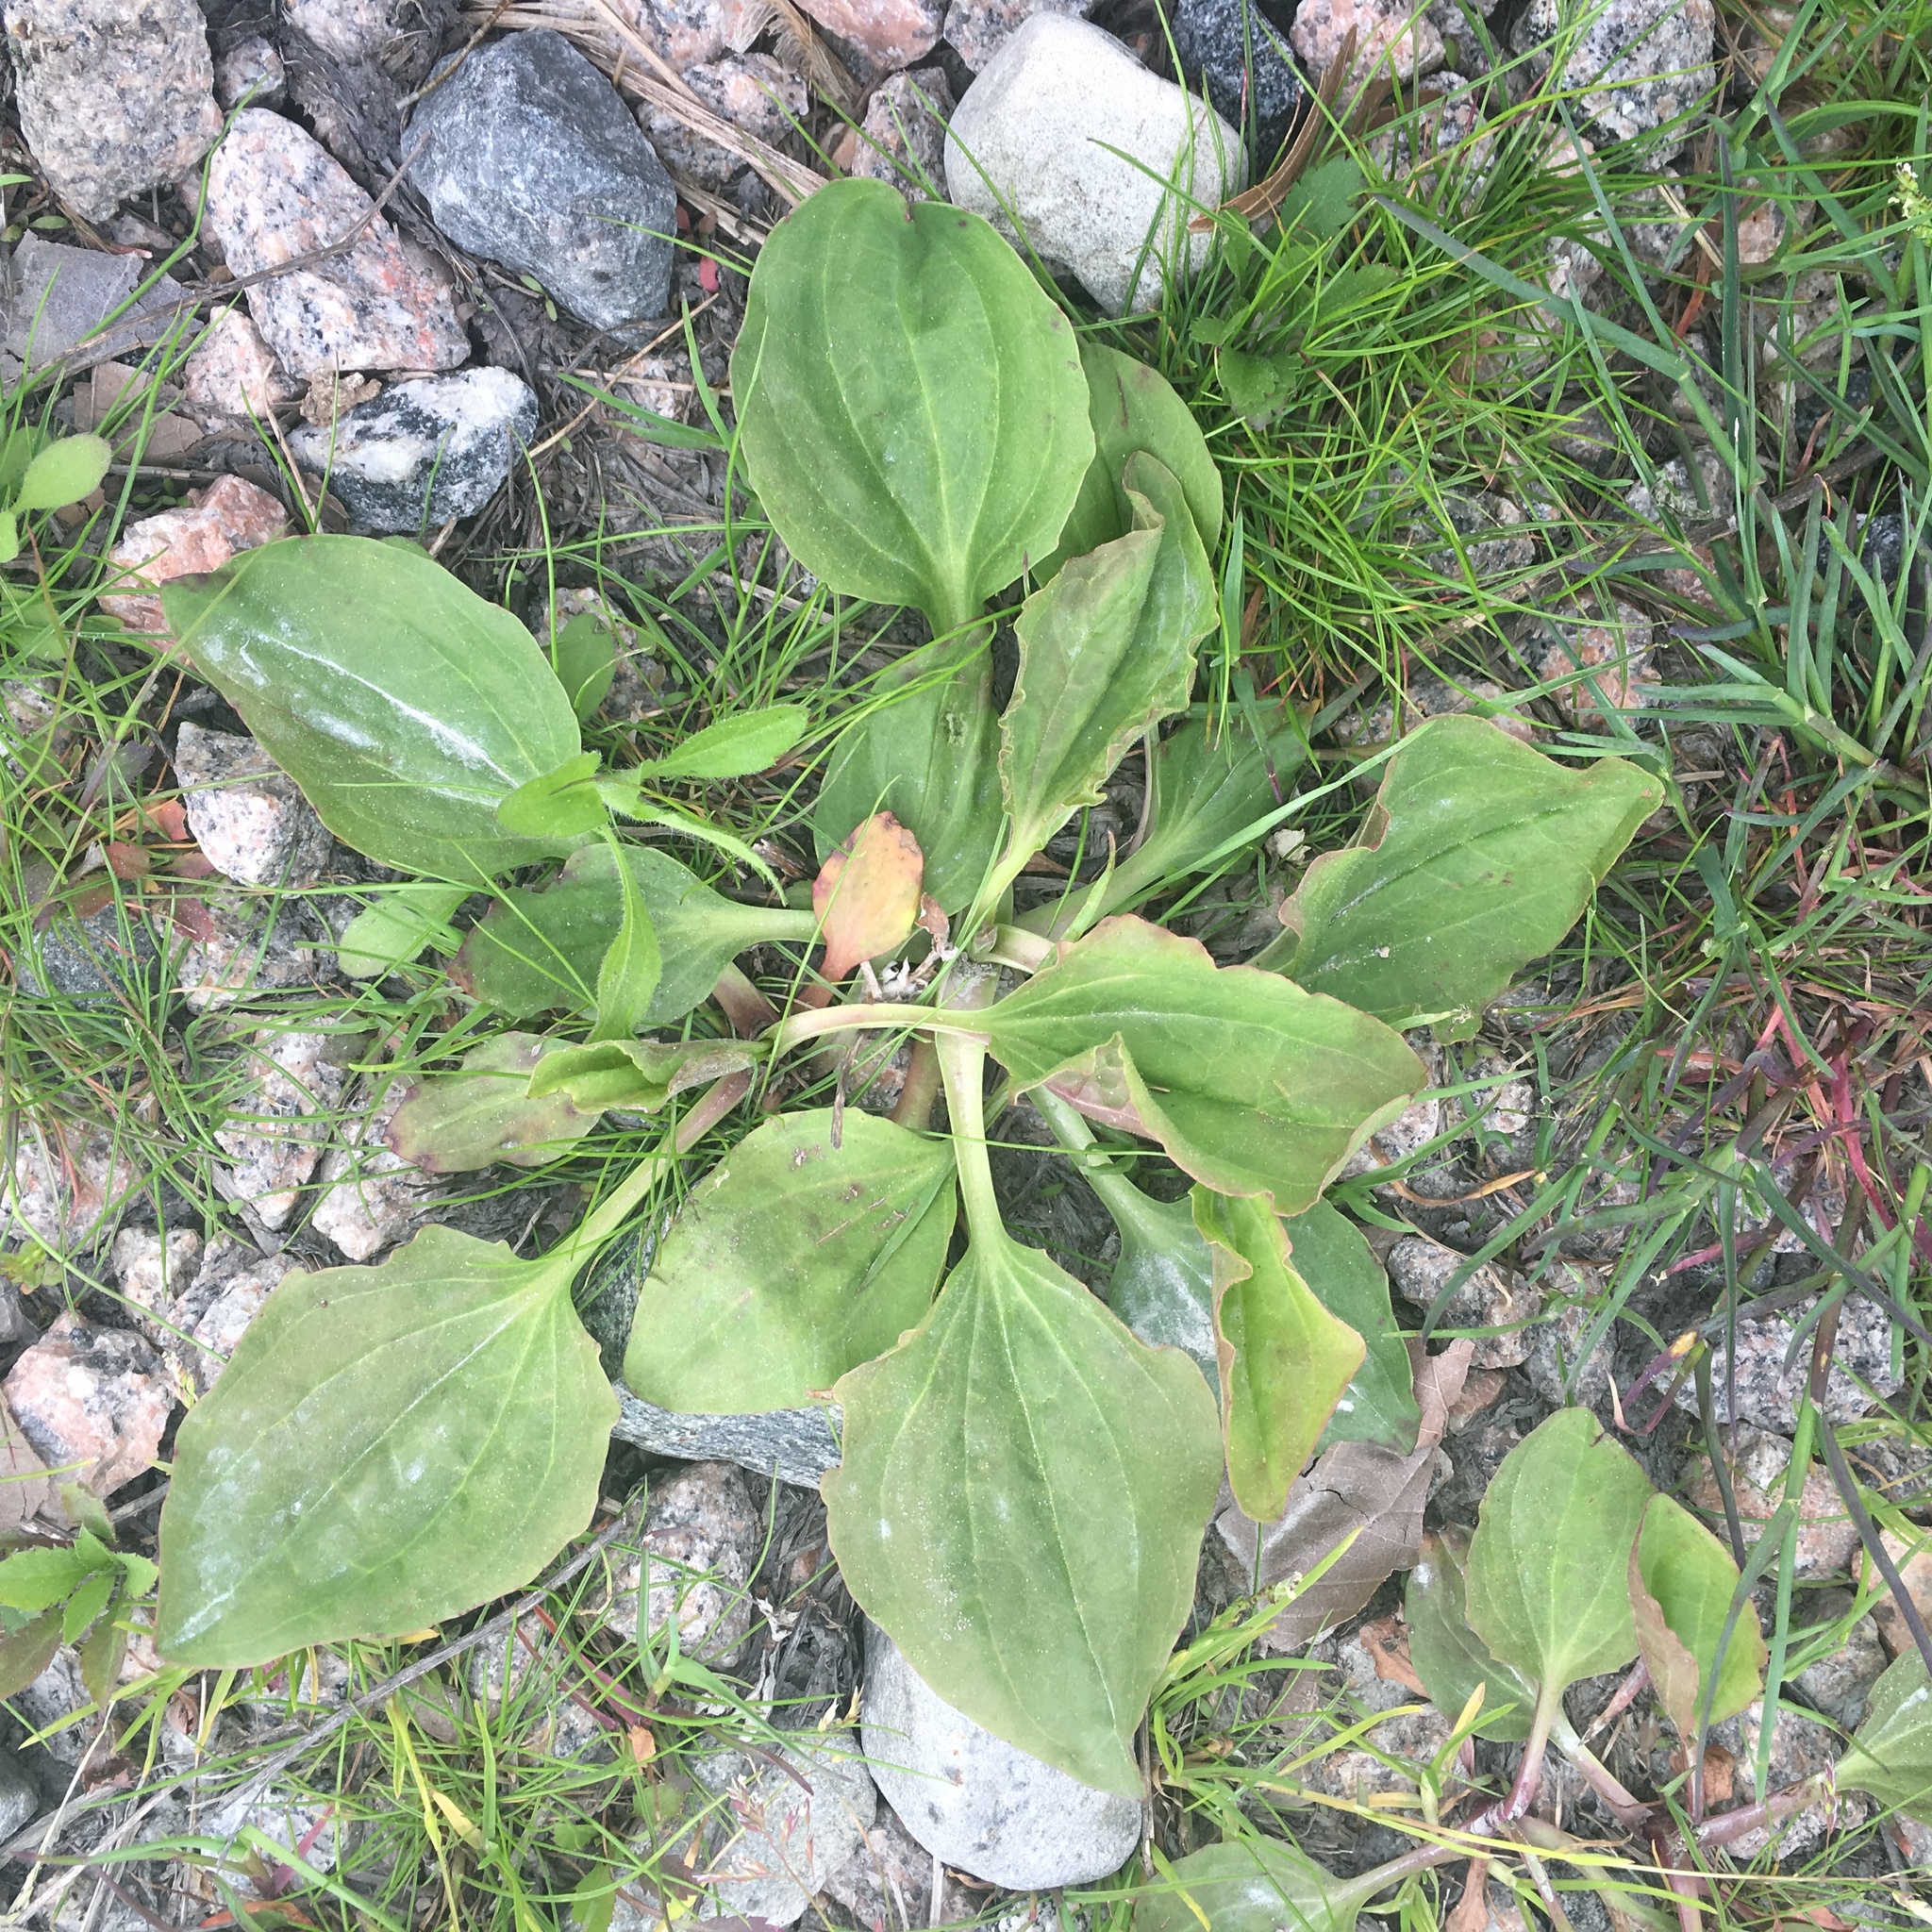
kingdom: Plantae
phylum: Tracheophyta
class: Magnoliopsida
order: Lamiales
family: Plantaginaceae
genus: Plantago
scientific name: Plantago rugelii
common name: American plantain
